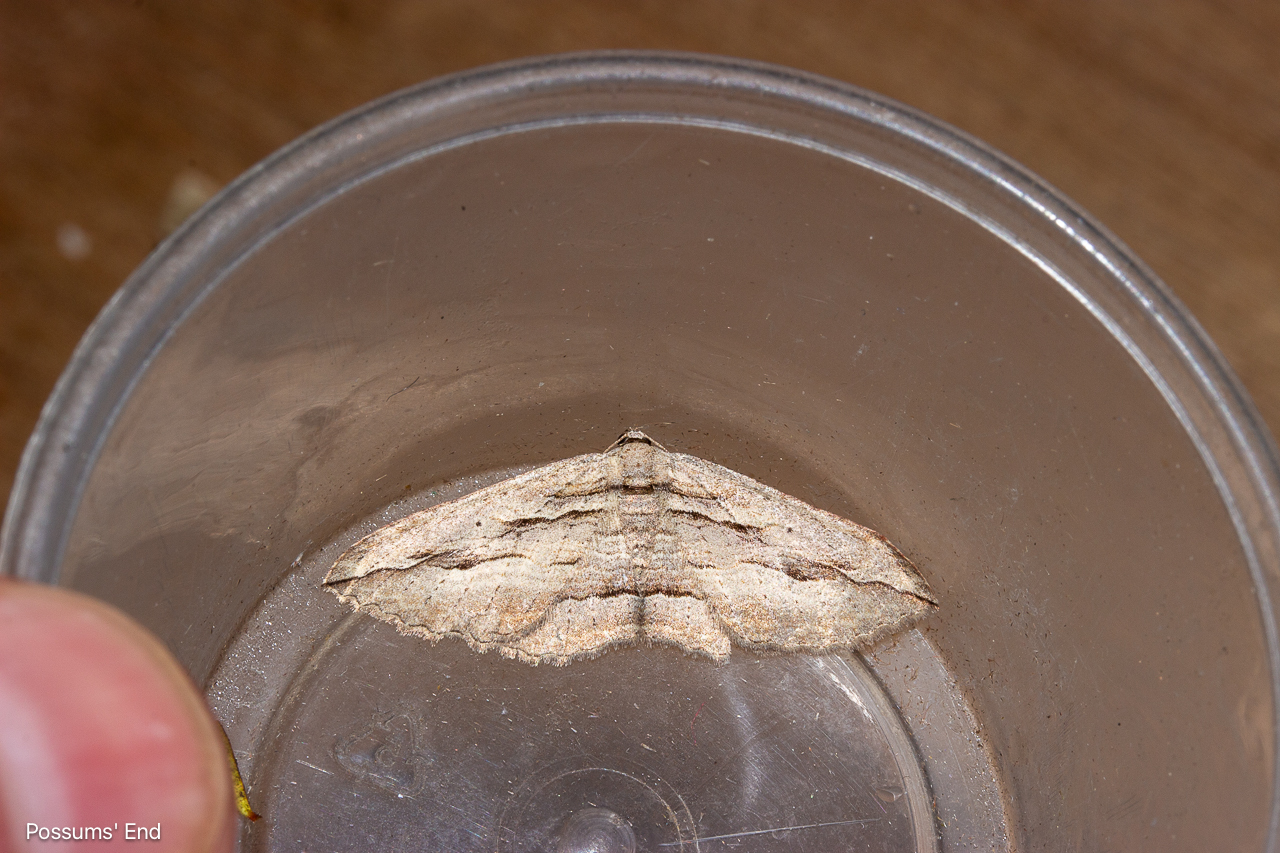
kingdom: Animalia
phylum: Arthropoda
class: Insecta
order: Lepidoptera
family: Geometridae
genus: Austrocidaria
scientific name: Austrocidaria gobiata
